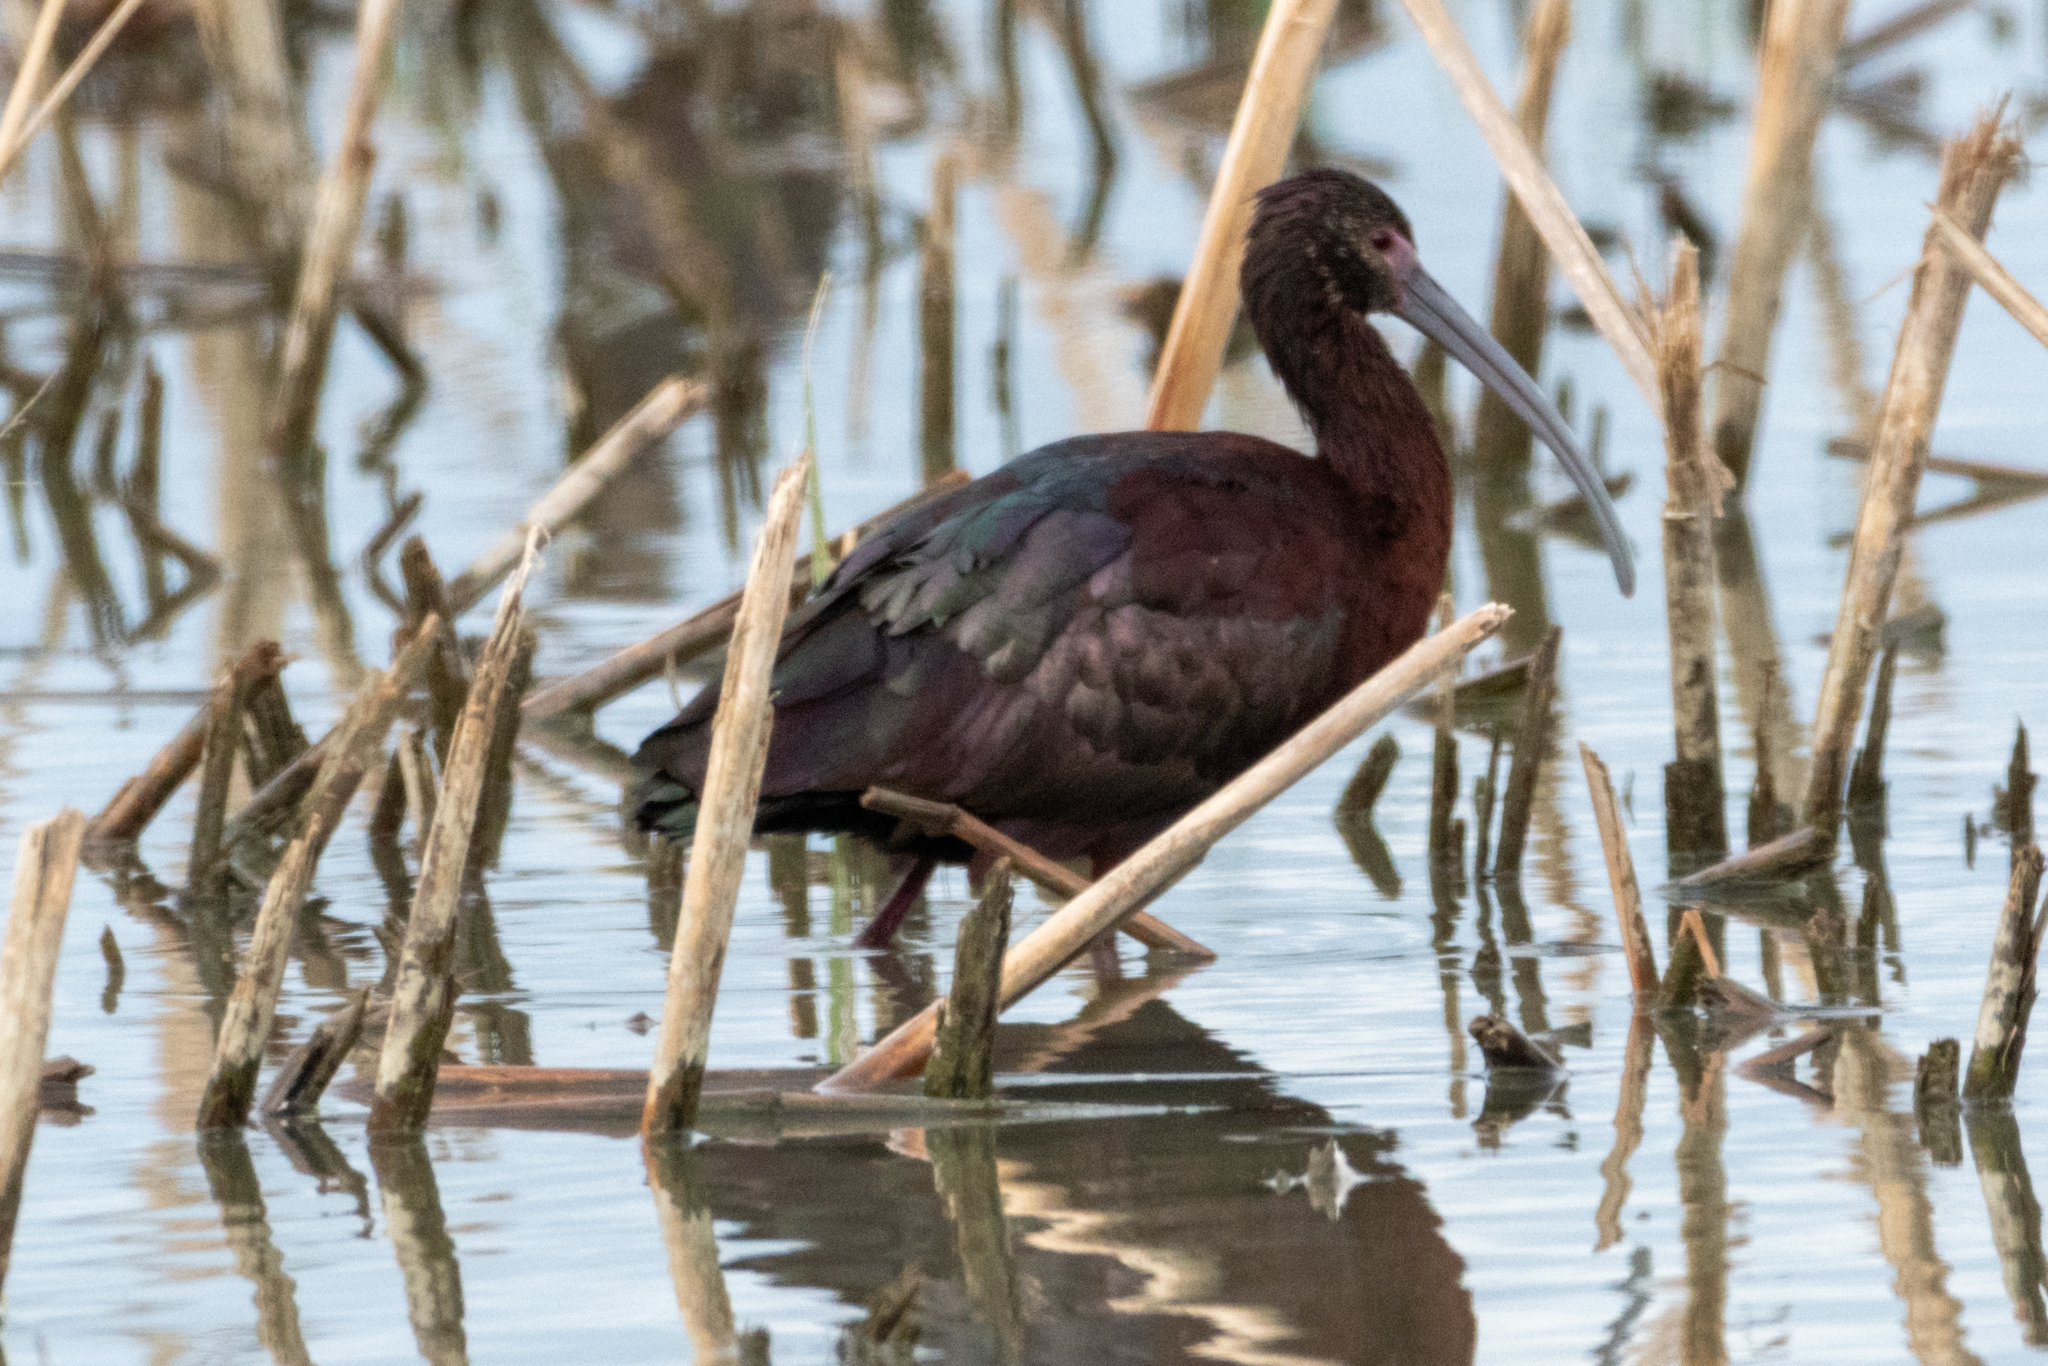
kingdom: Animalia
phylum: Chordata
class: Aves
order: Pelecaniformes
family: Threskiornithidae
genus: Plegadis
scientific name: Plegadis chihi
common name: White-faced ibis
